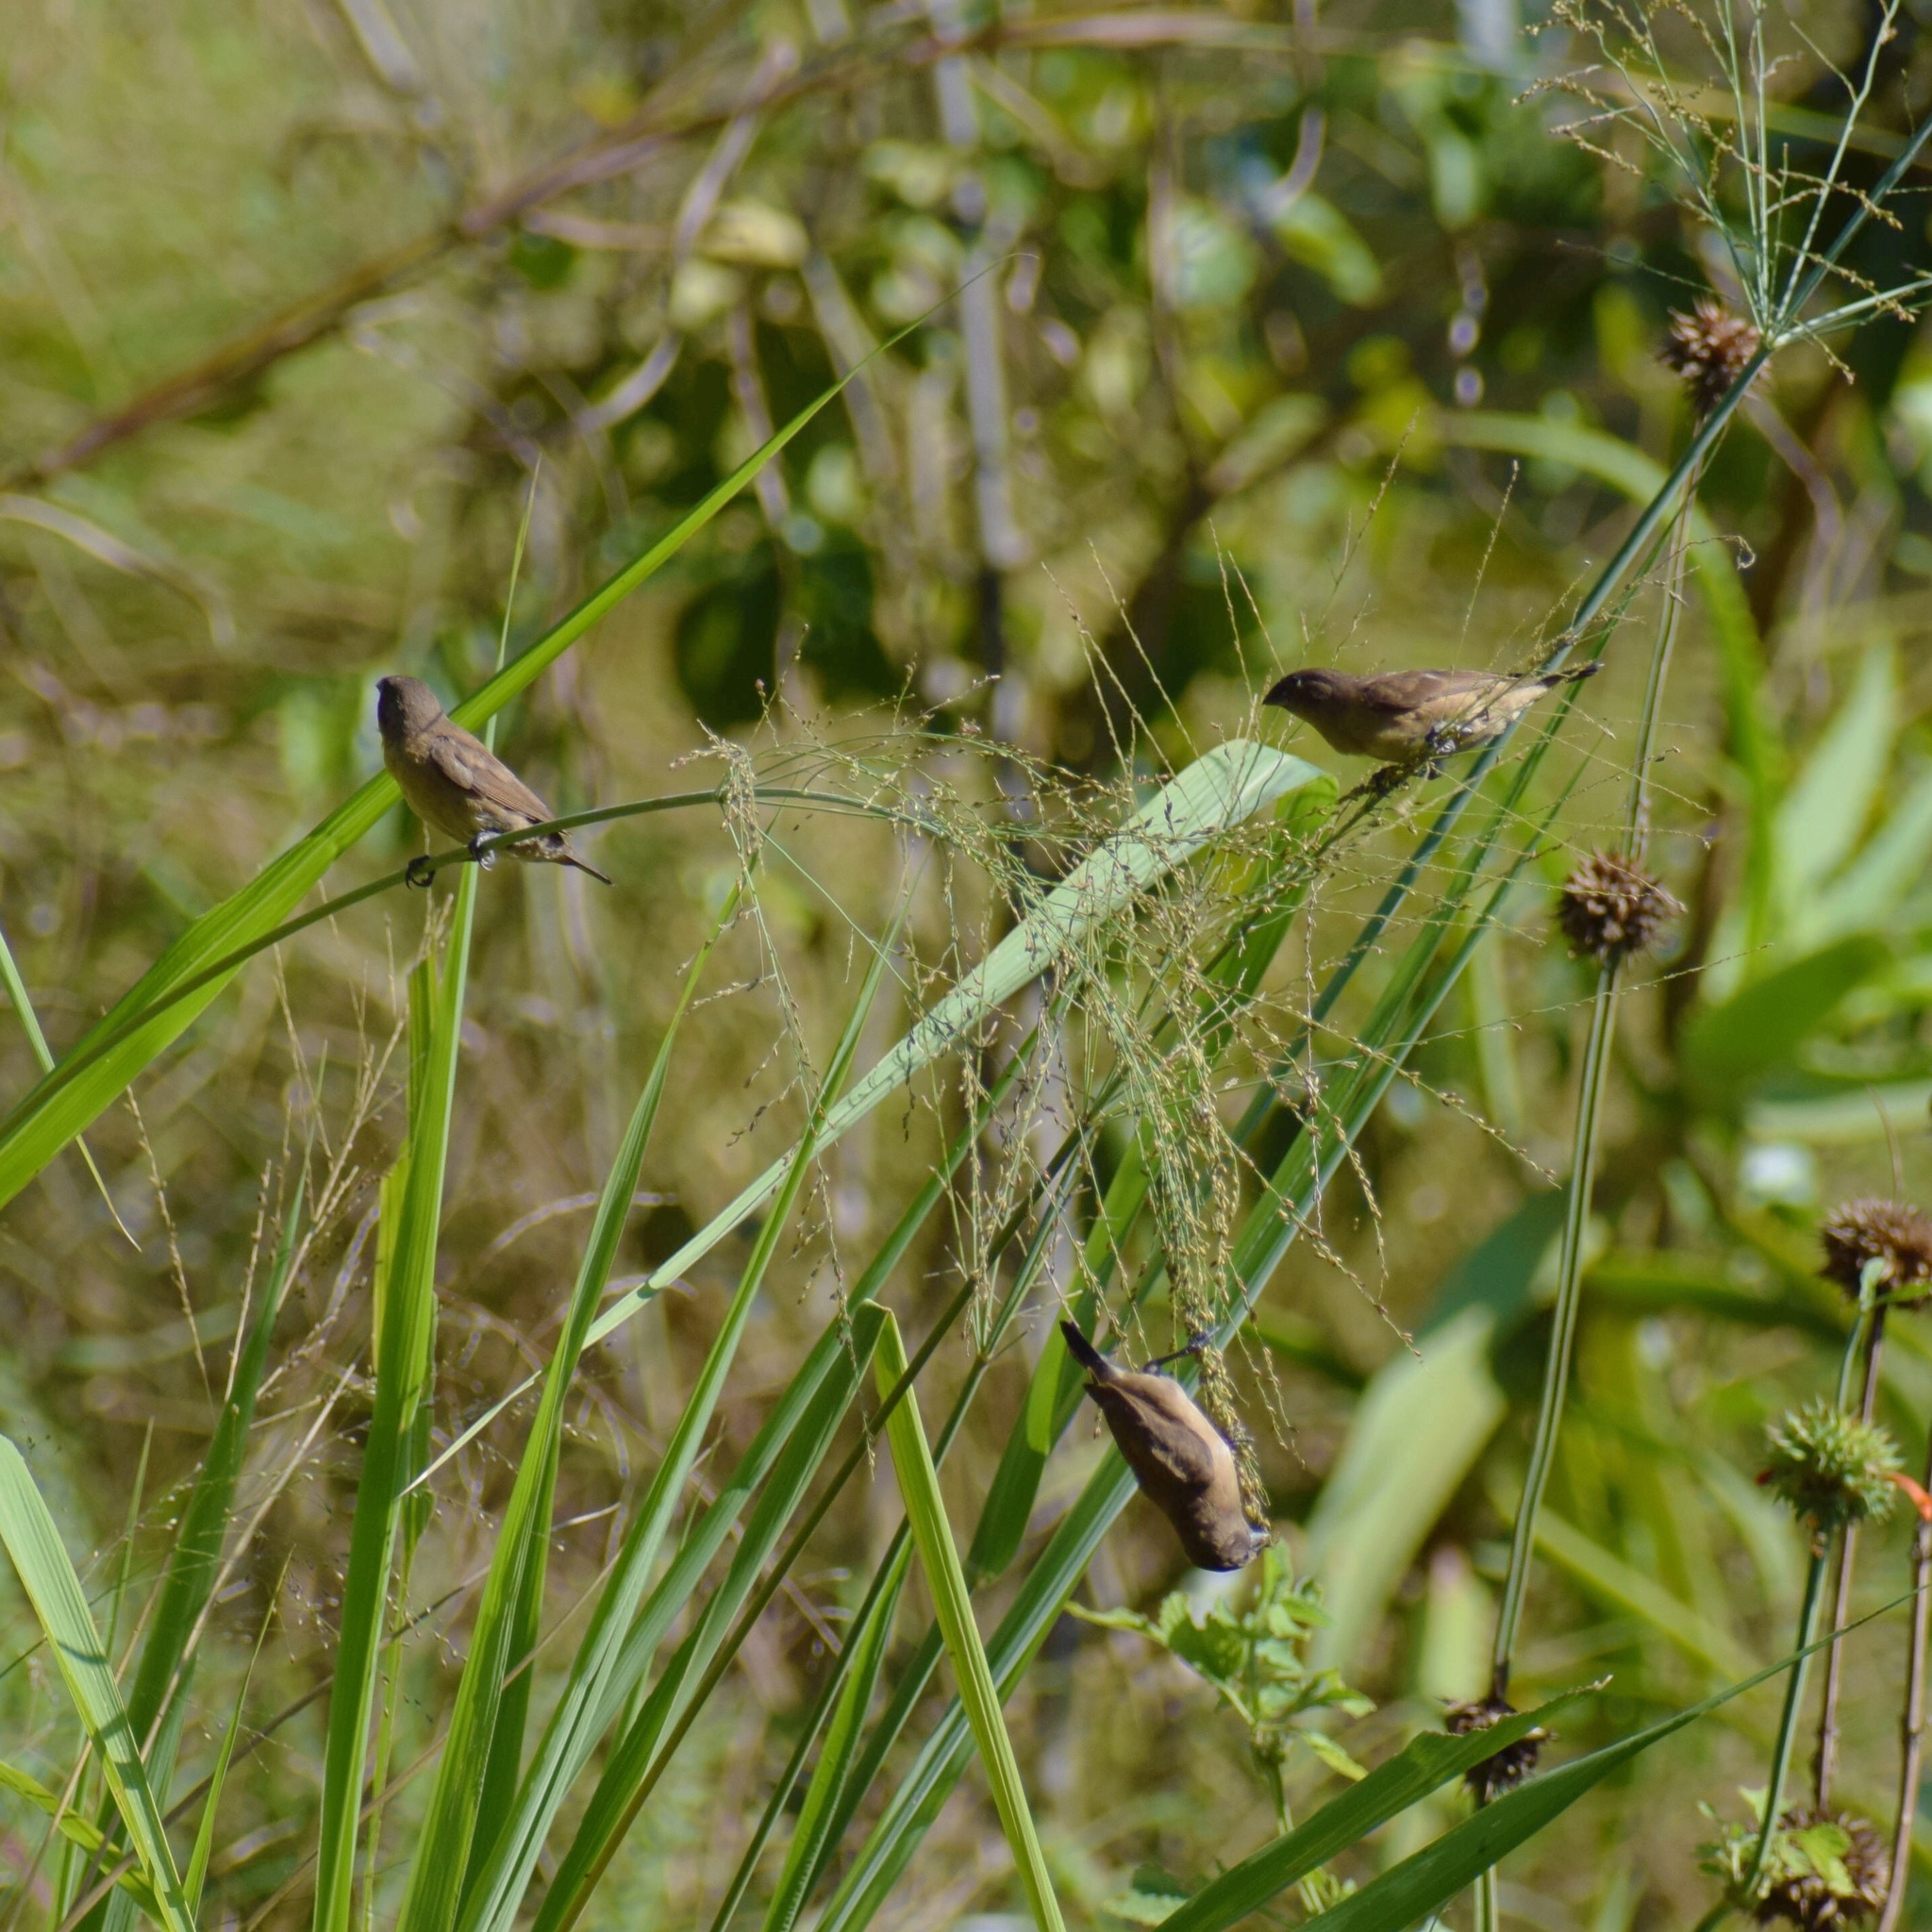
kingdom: Animalia
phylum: Chordata
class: Aves
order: Passeriformes
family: Estrildidae
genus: Lonchura
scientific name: Lonchura cucullata
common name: Bronze mannikin
